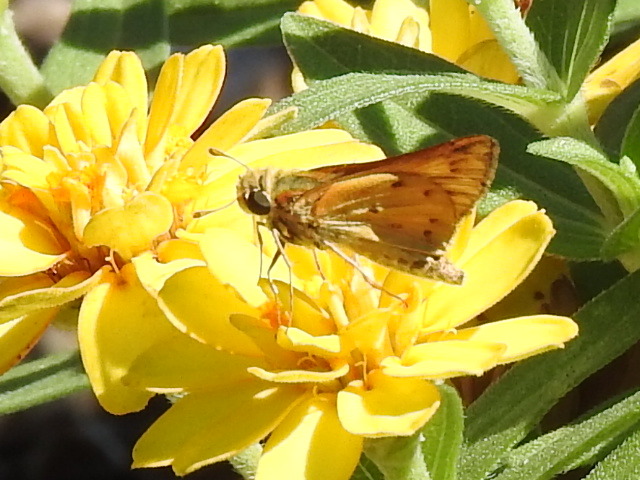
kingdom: Animalia
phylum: Arthropoda
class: Insecta
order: Lepidoptera
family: Hesperiidae
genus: Hylephila
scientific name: Hylephila phyleus
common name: Fiery skipper
